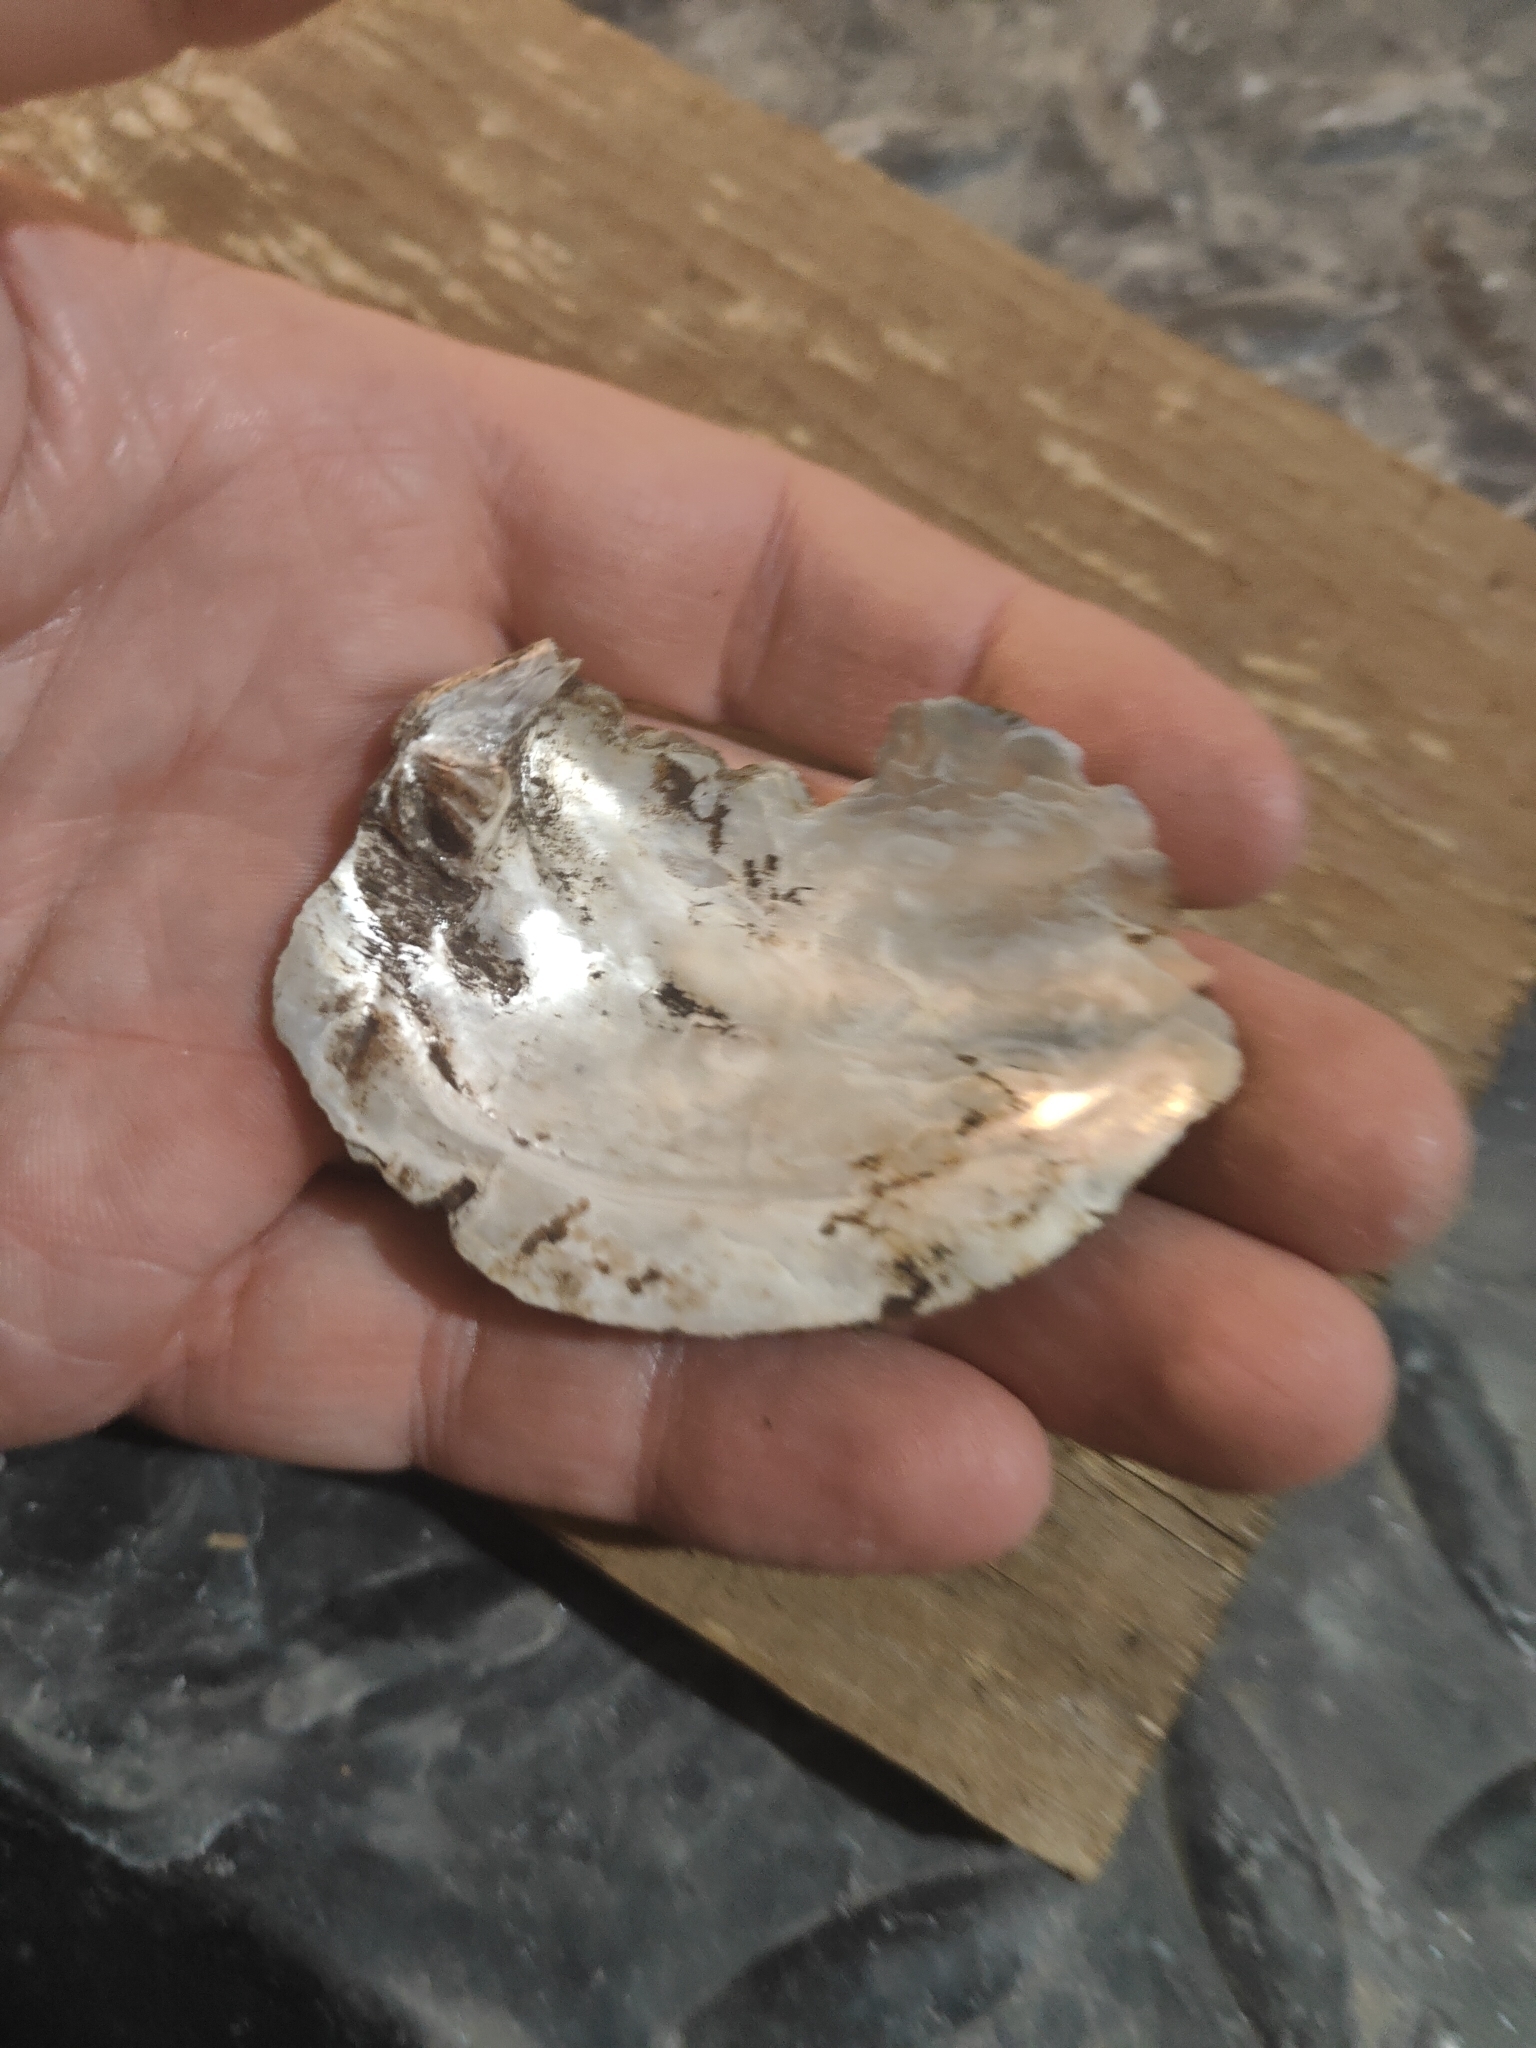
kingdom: Animalia
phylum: Mollusca
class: Bivalvia
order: Unionida
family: Unionidae
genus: Amblema
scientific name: Amblema plicata
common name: Threeridge
